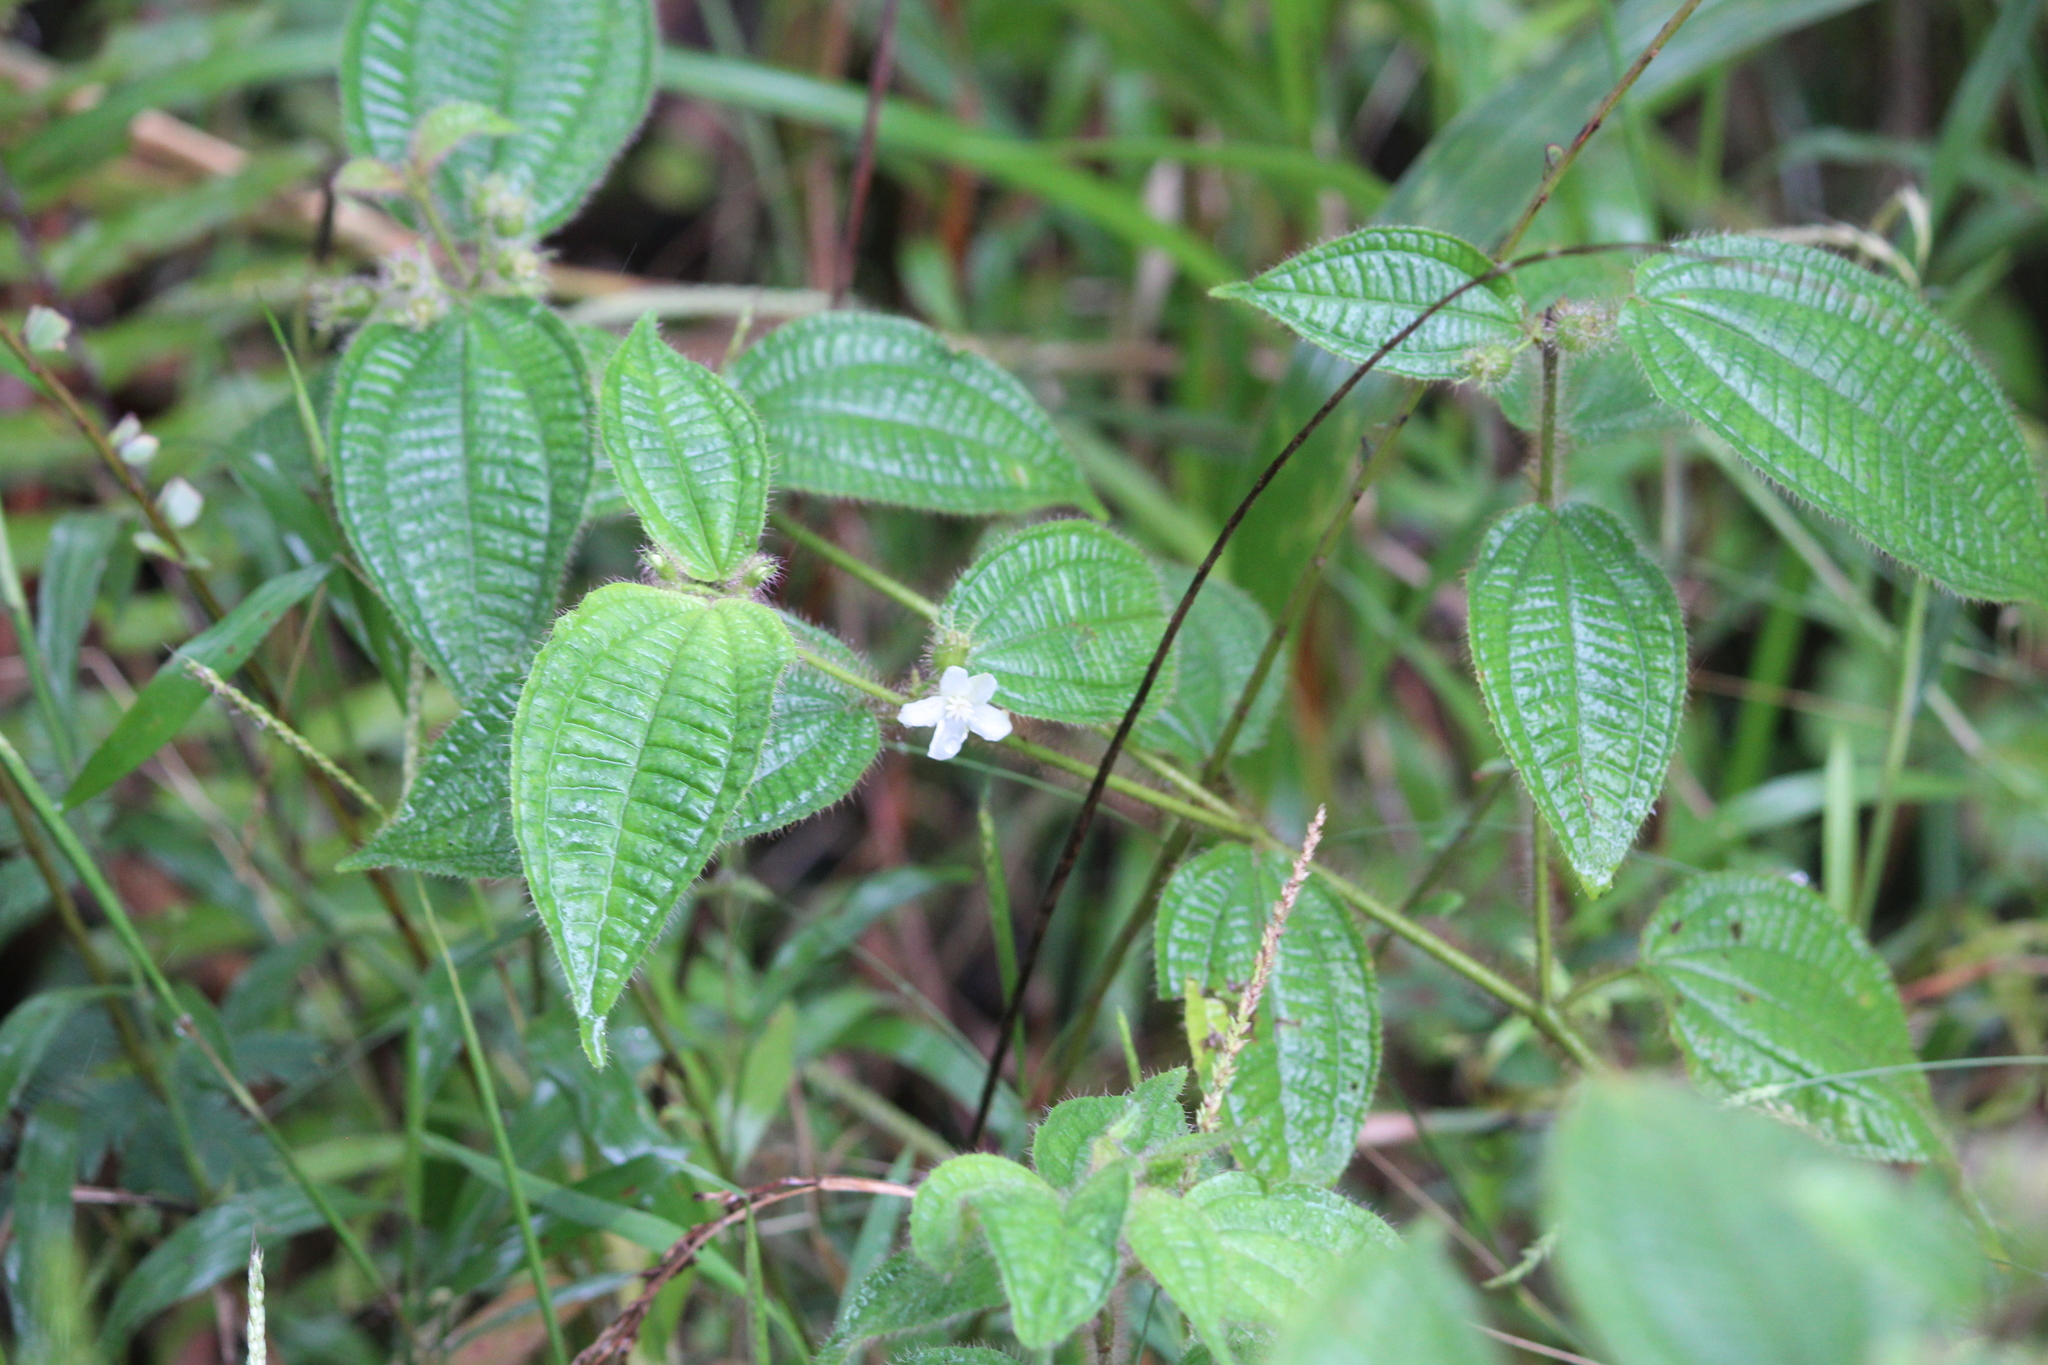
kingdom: Plantae
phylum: Tracheophyta
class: Magnoliopsida
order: Myrtales
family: Melastomataceae
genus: Miconia
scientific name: Miconia crenata
